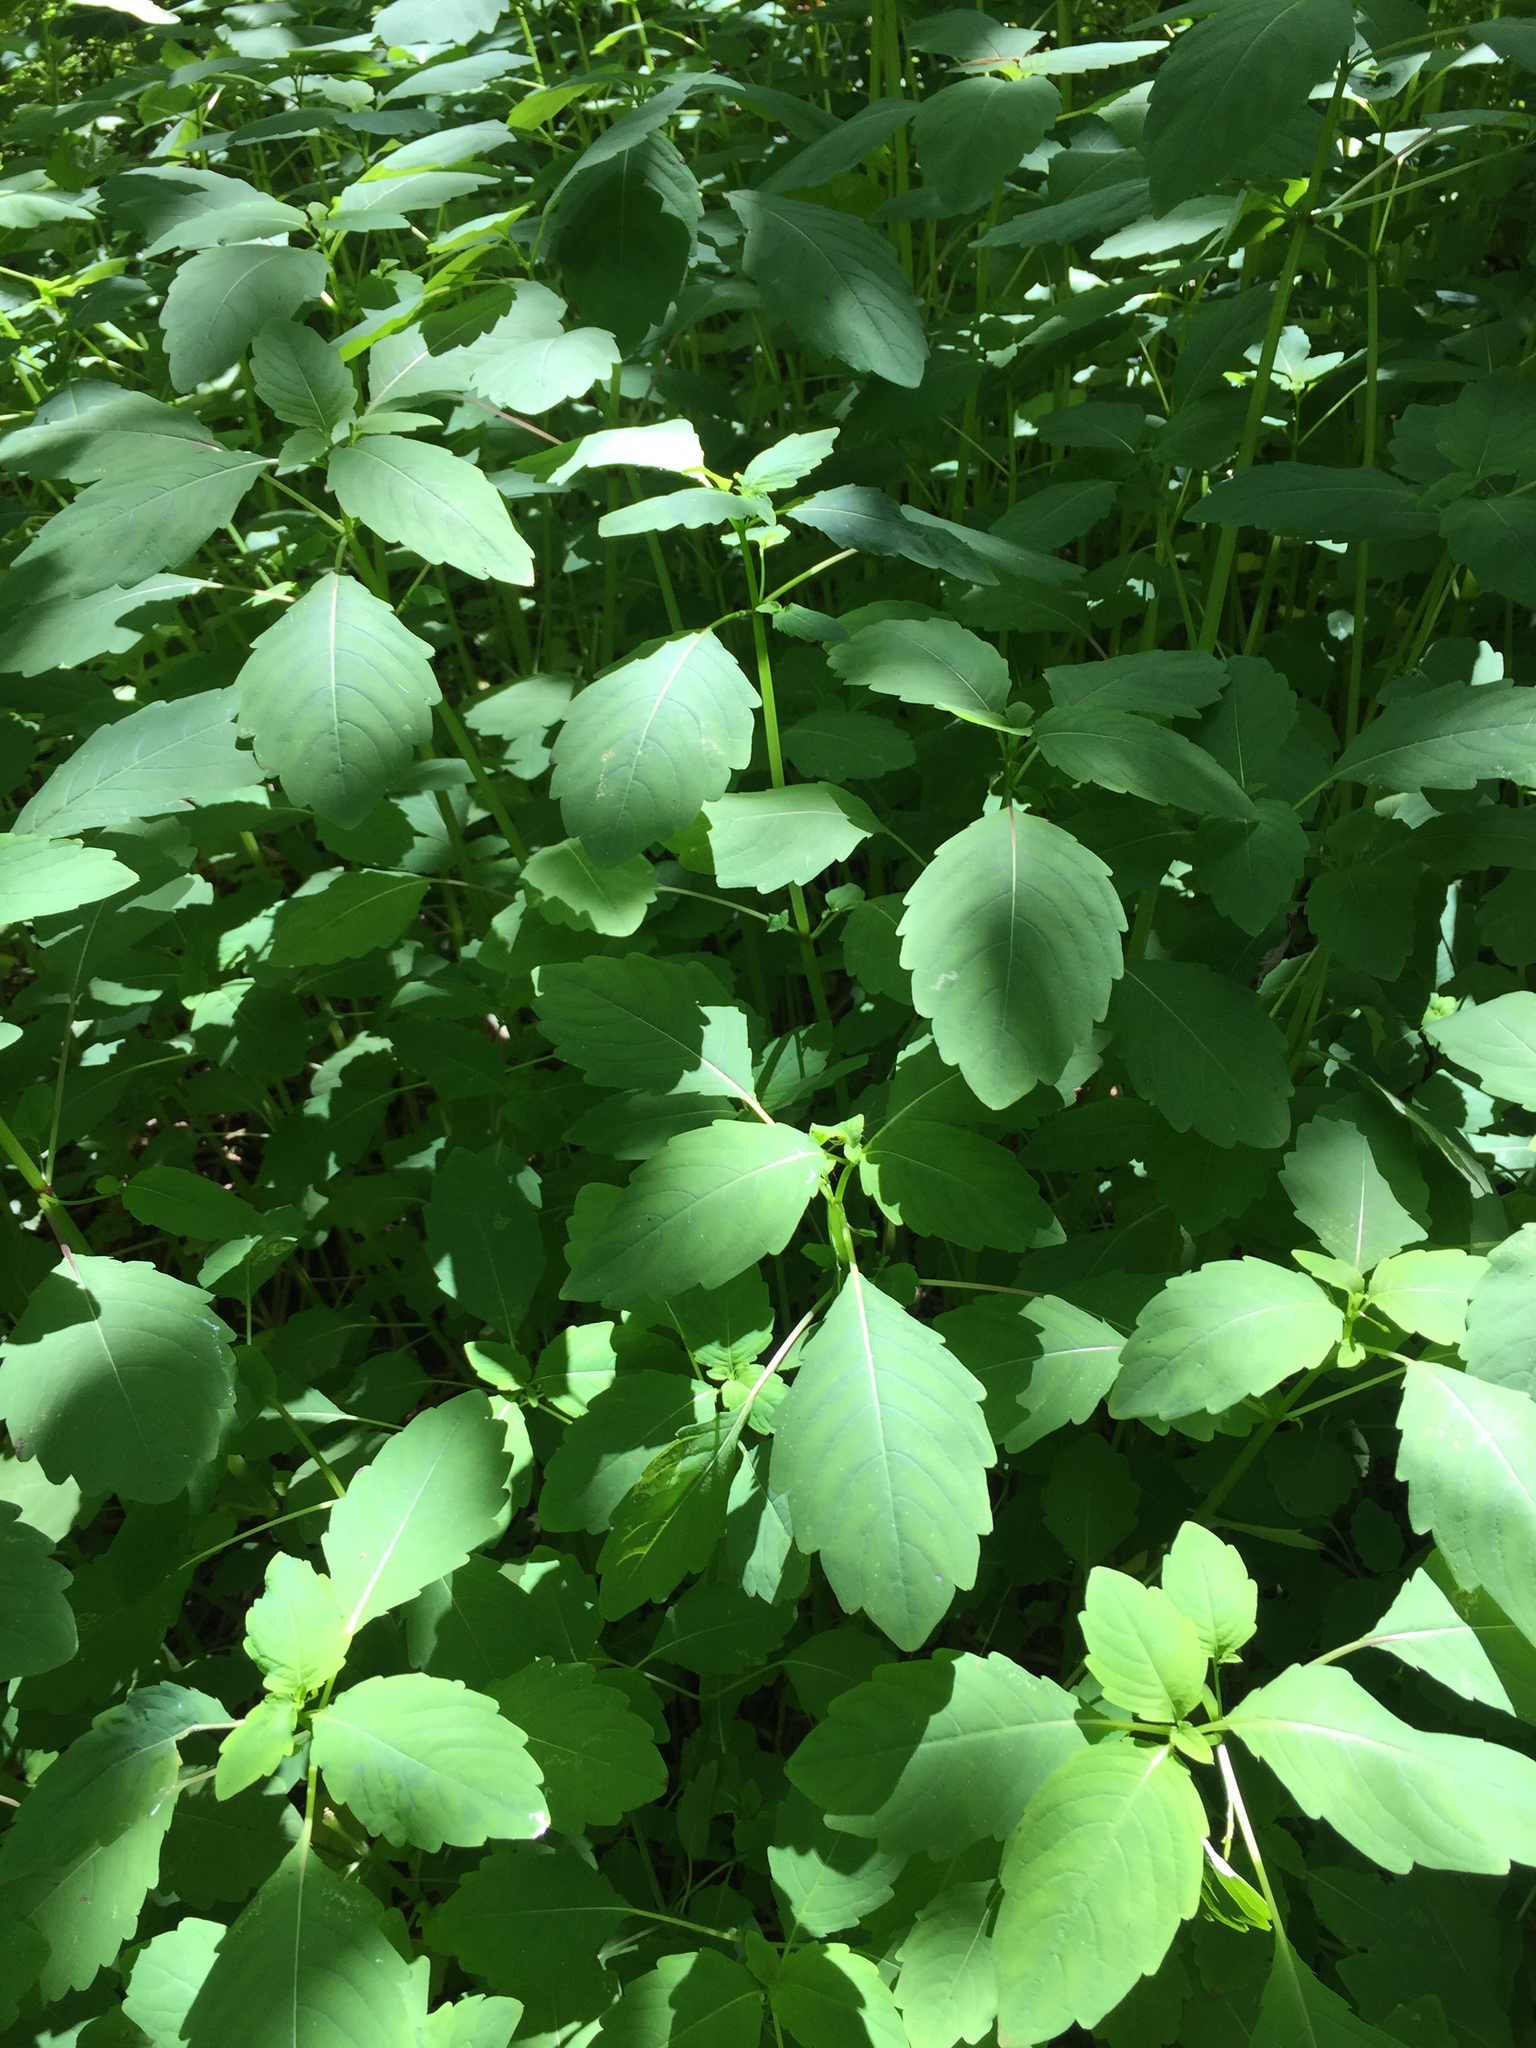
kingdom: Plantae
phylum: Tracheophyta
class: Magnoliopsida
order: Ericales
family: Balsaminaceae
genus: Impatiens
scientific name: Impatiens capensis
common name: Orange balsam
